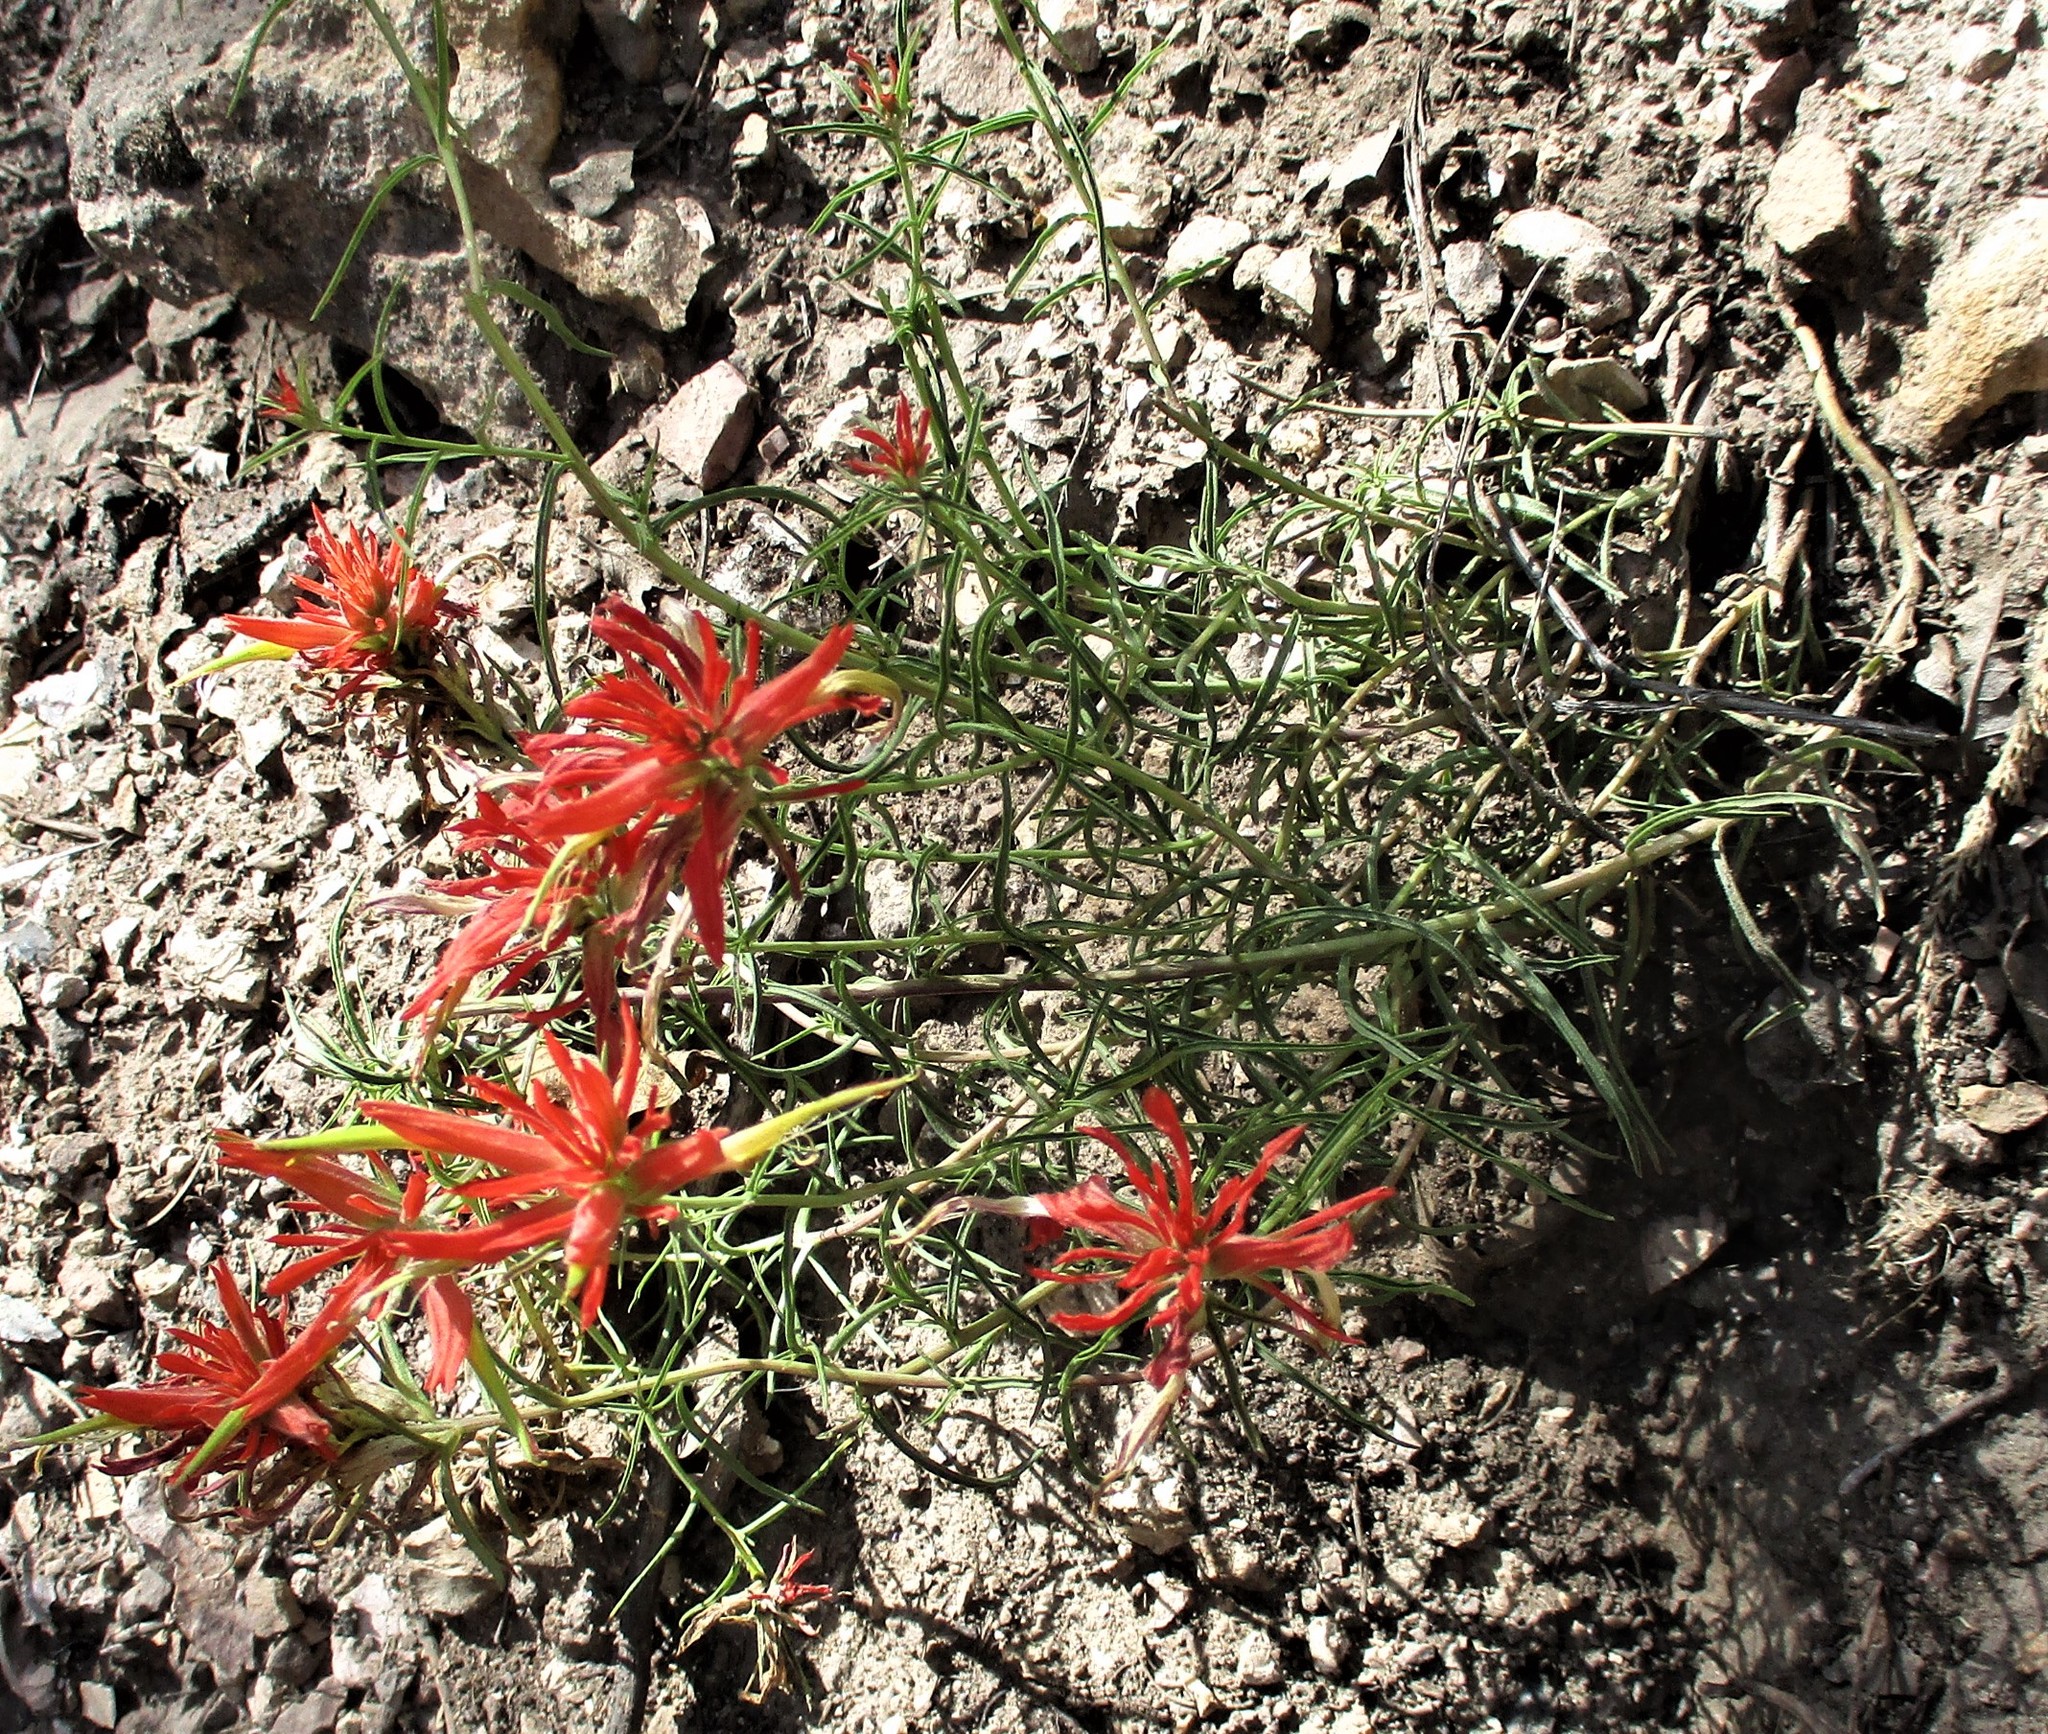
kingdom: Plantae
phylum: Tracheophyta
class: Magnoliopsida
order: Lamiales
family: Orobanchaceae
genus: Castilleja
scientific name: Castilleja linariifolia
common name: Wyoming paintbrush
